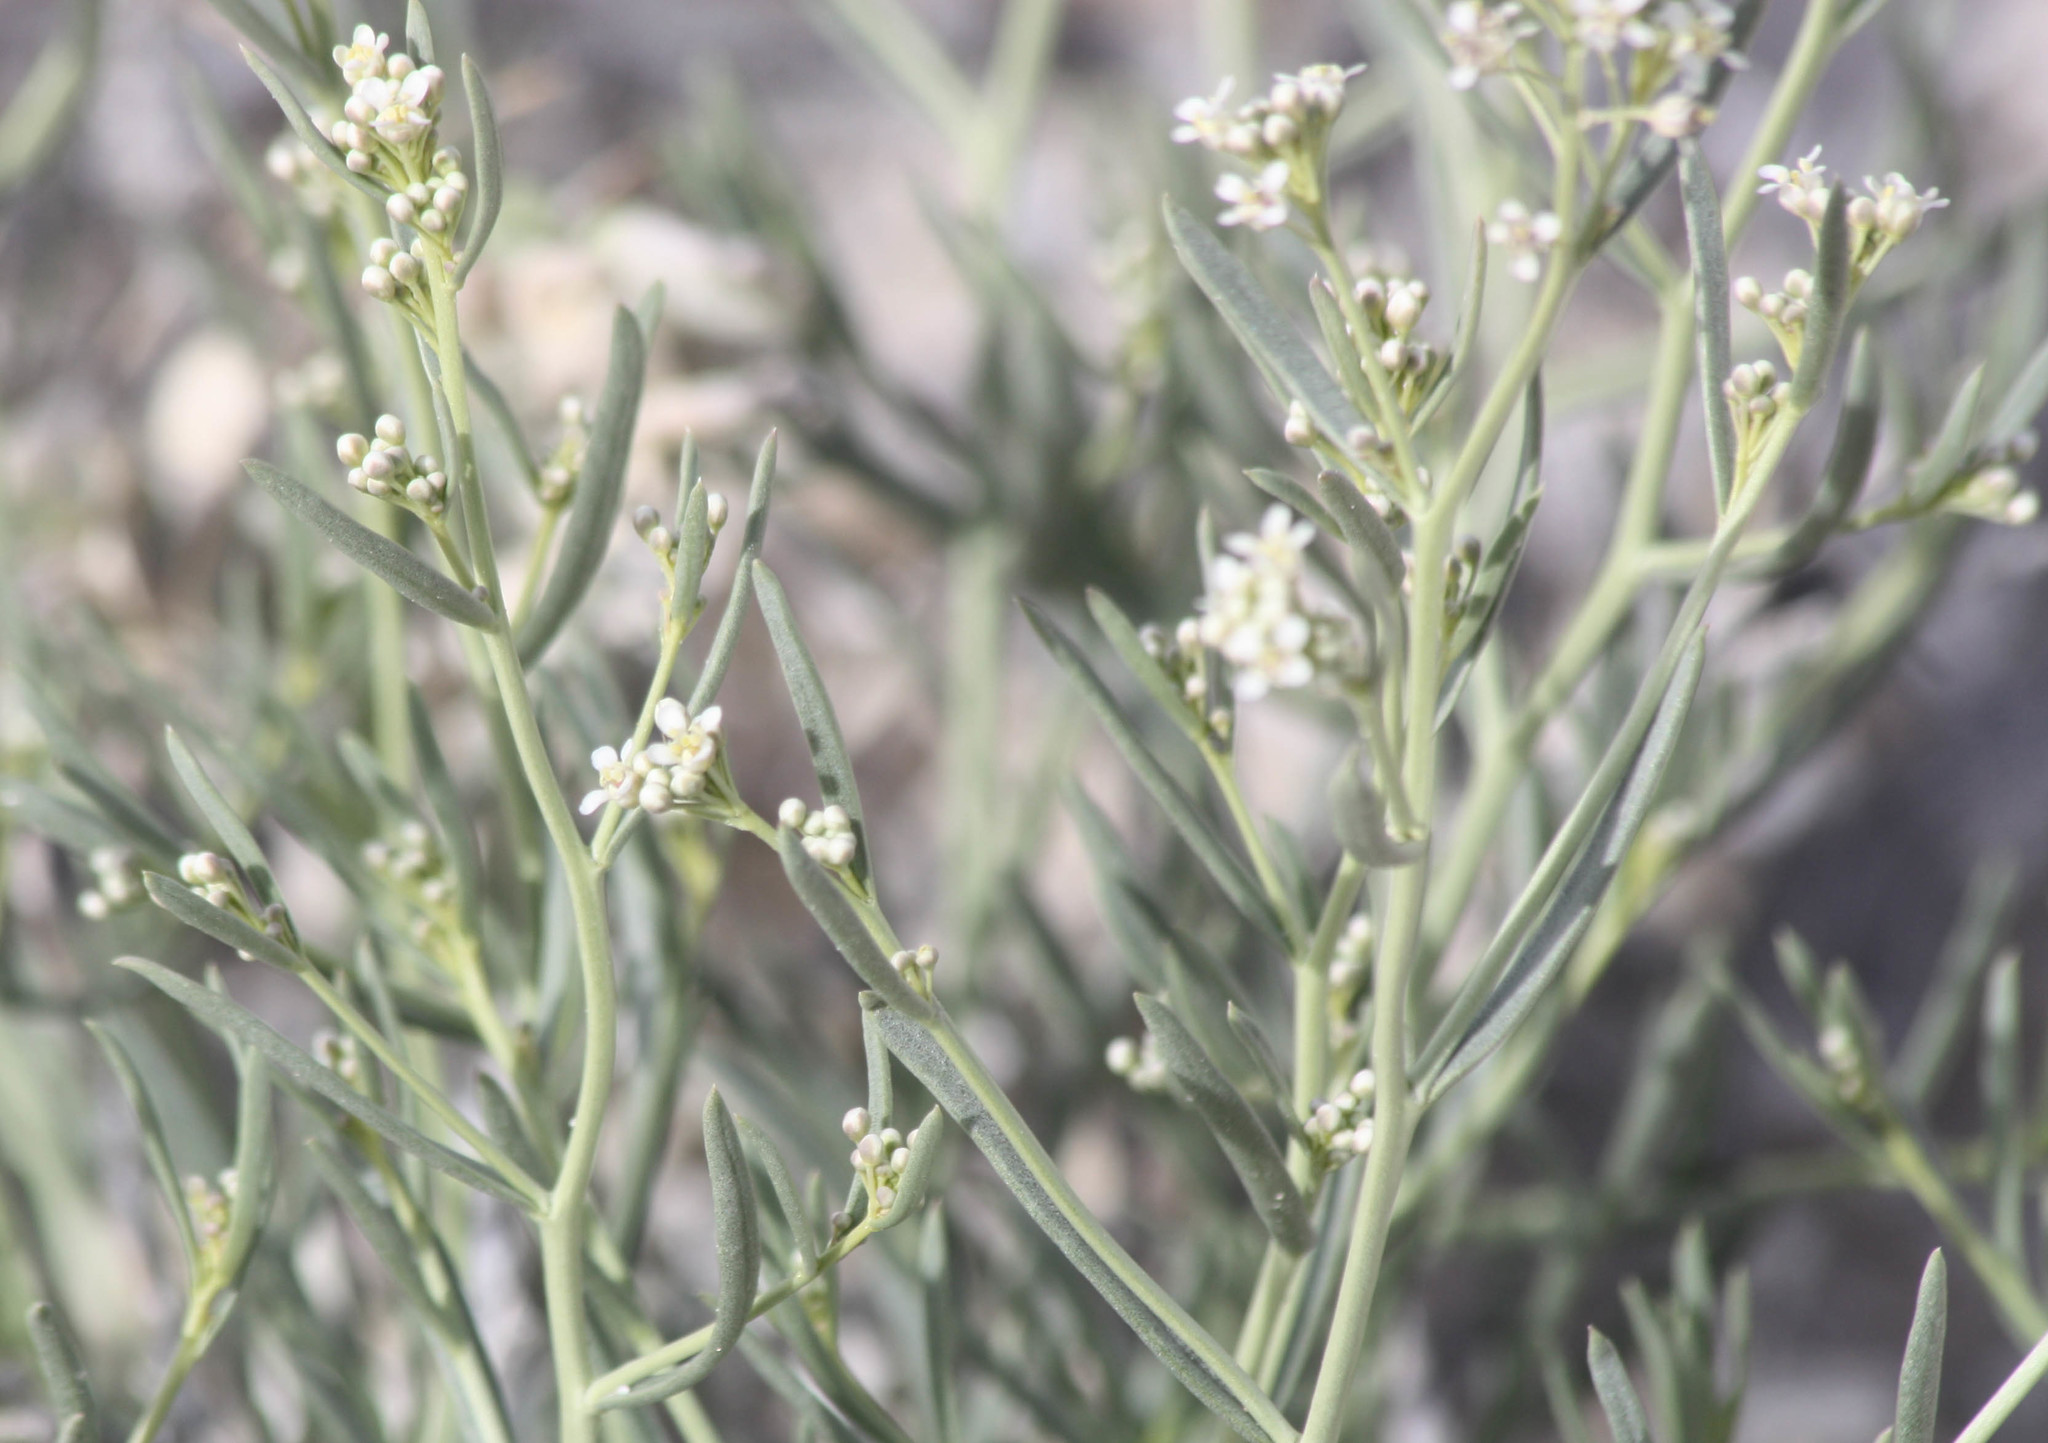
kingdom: Plantae
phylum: Tracheophyta
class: Magnoliopsida
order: Brassicales
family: Brassicaceae
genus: Lepidium
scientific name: Lepidium fremontii
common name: Fremont's pepperwort
